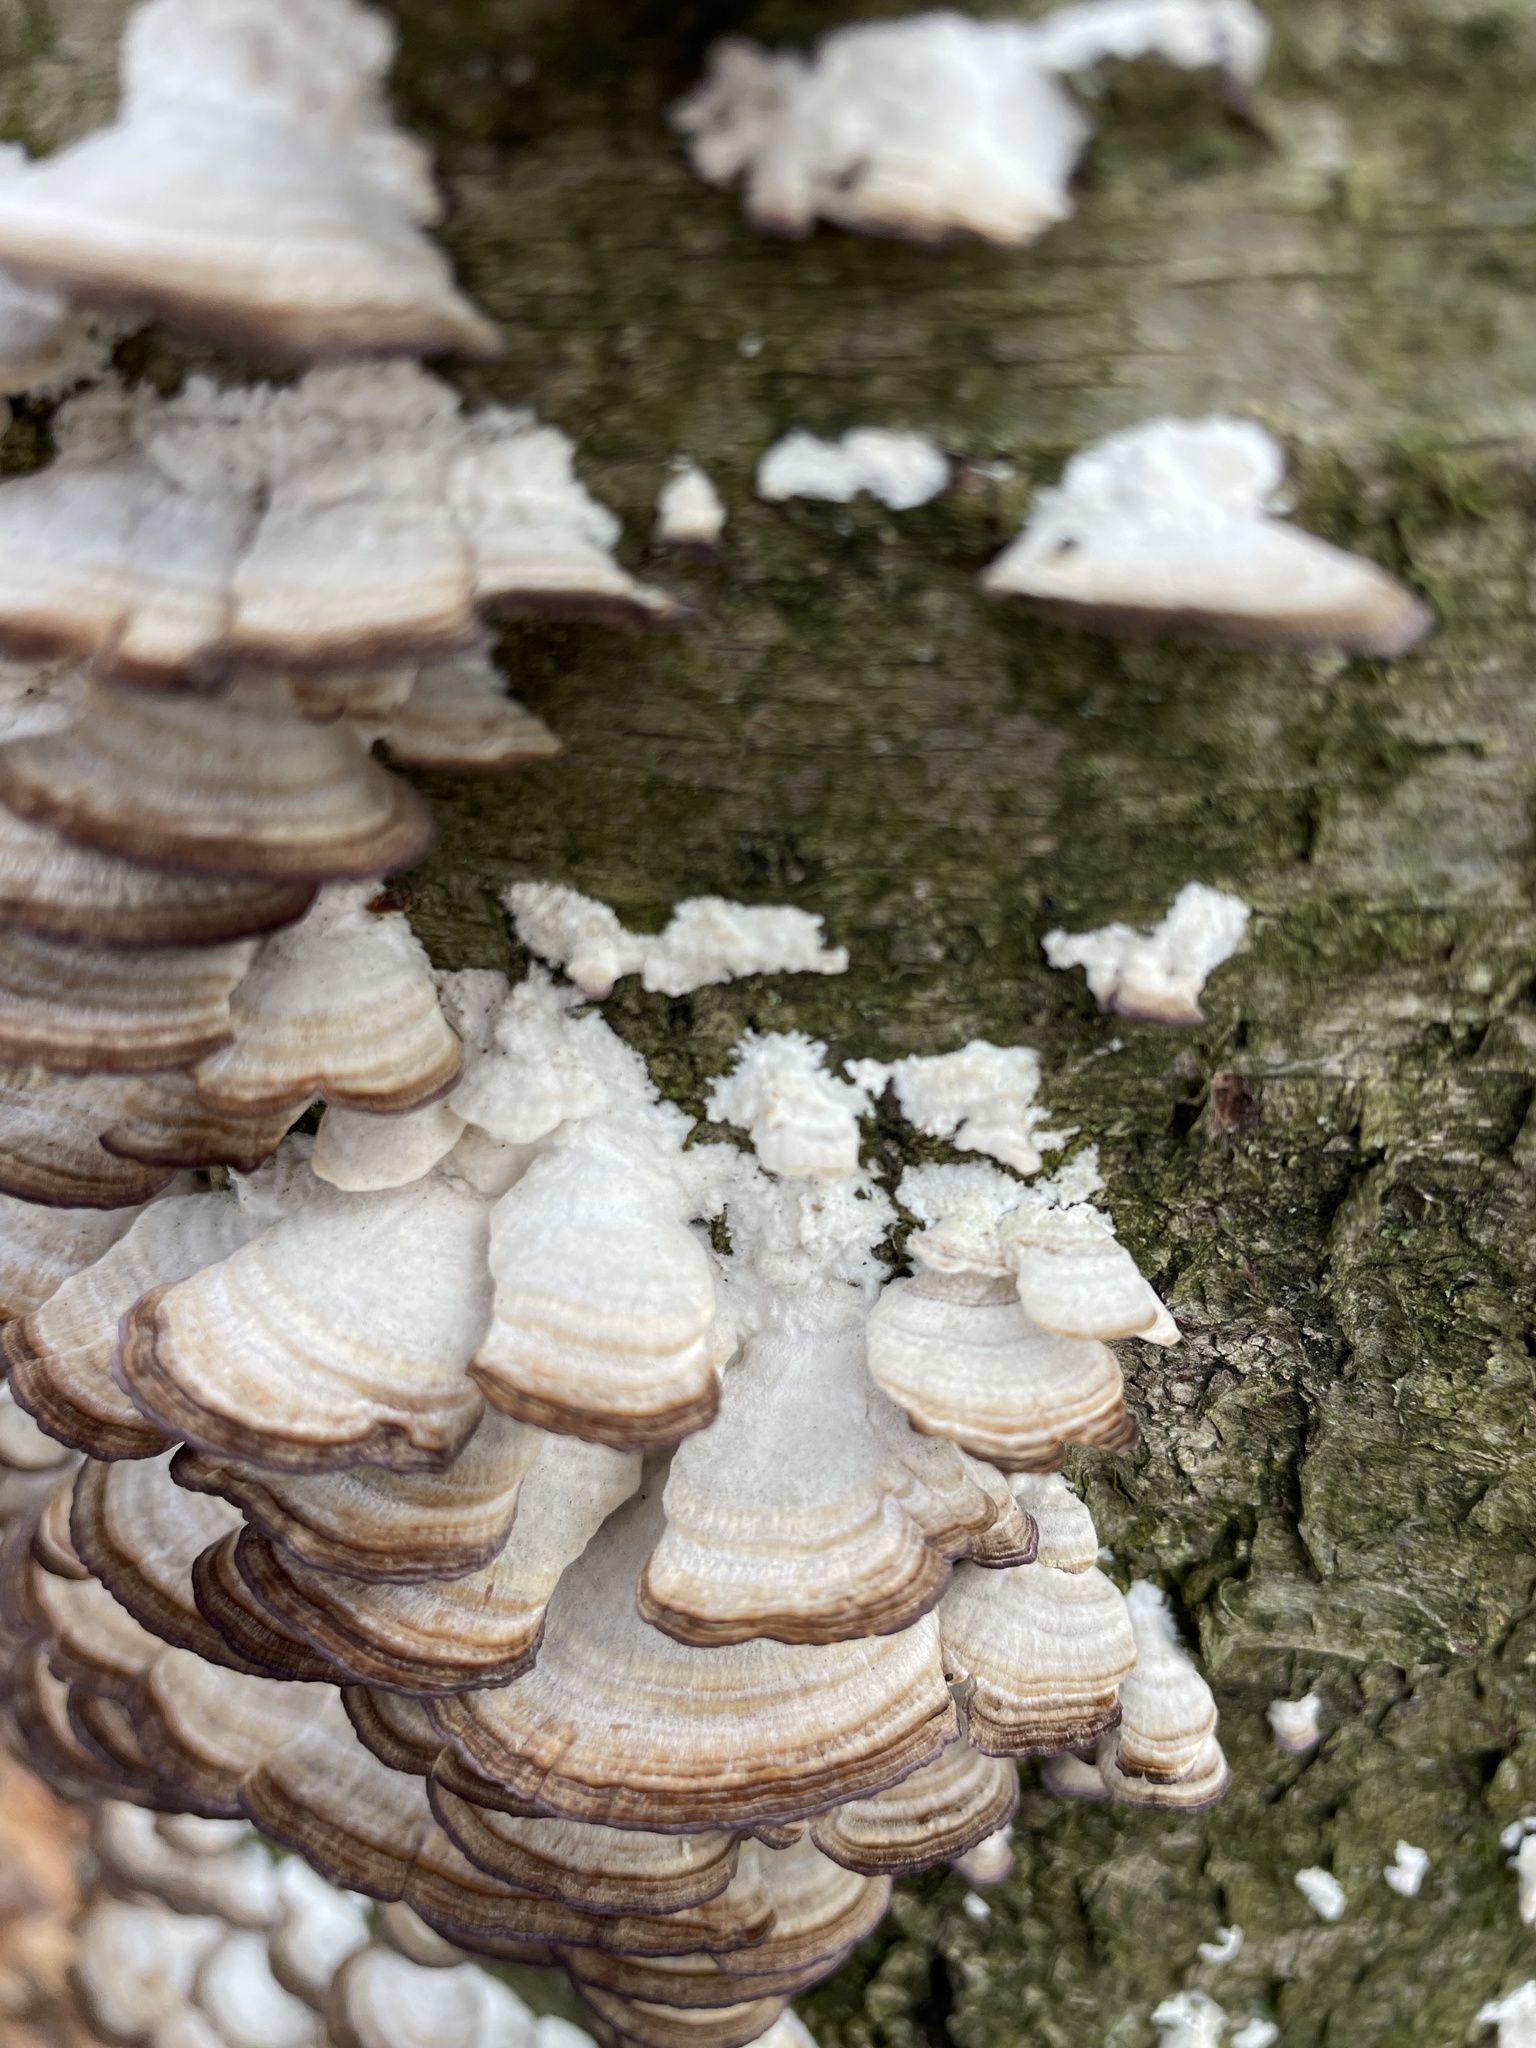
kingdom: Fungi
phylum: Basidiomycota
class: Agaricomycetes
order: Hymenochaetales
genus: Trichaptum
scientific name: Trichaptum biforme
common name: Violet-toothed polypore
